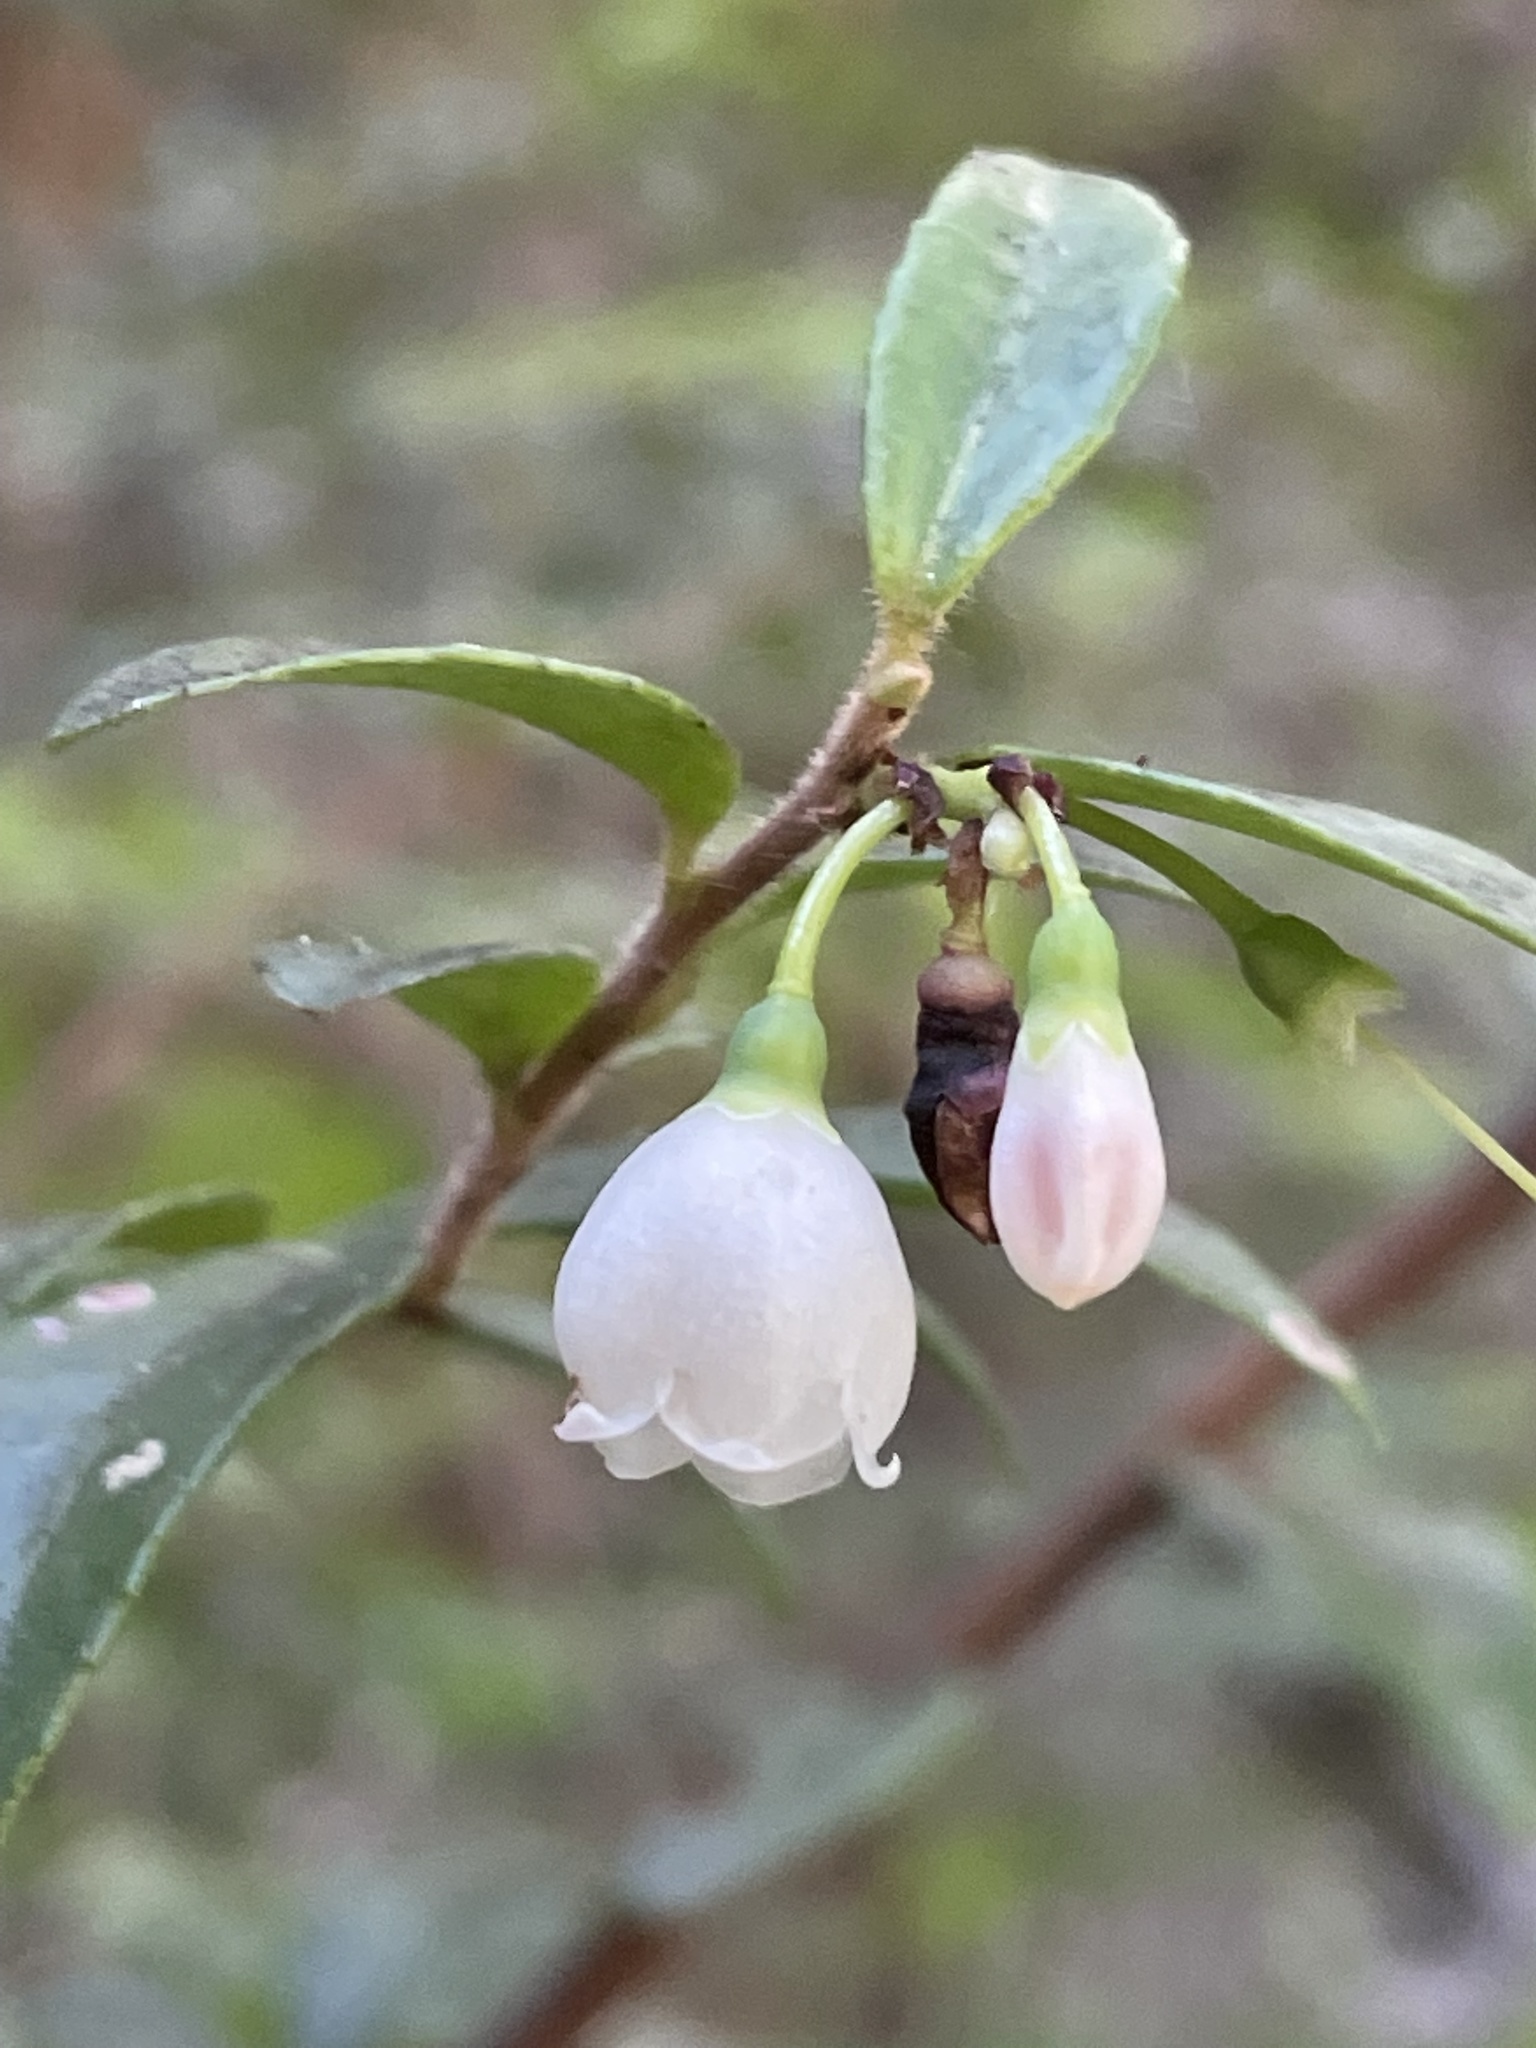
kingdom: Plantae
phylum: Tracheophyta
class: Magnoliopsida
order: Ericales
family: Ericaceae
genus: Vaccinium
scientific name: Vaccinium ovatum
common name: California-huckleberry
